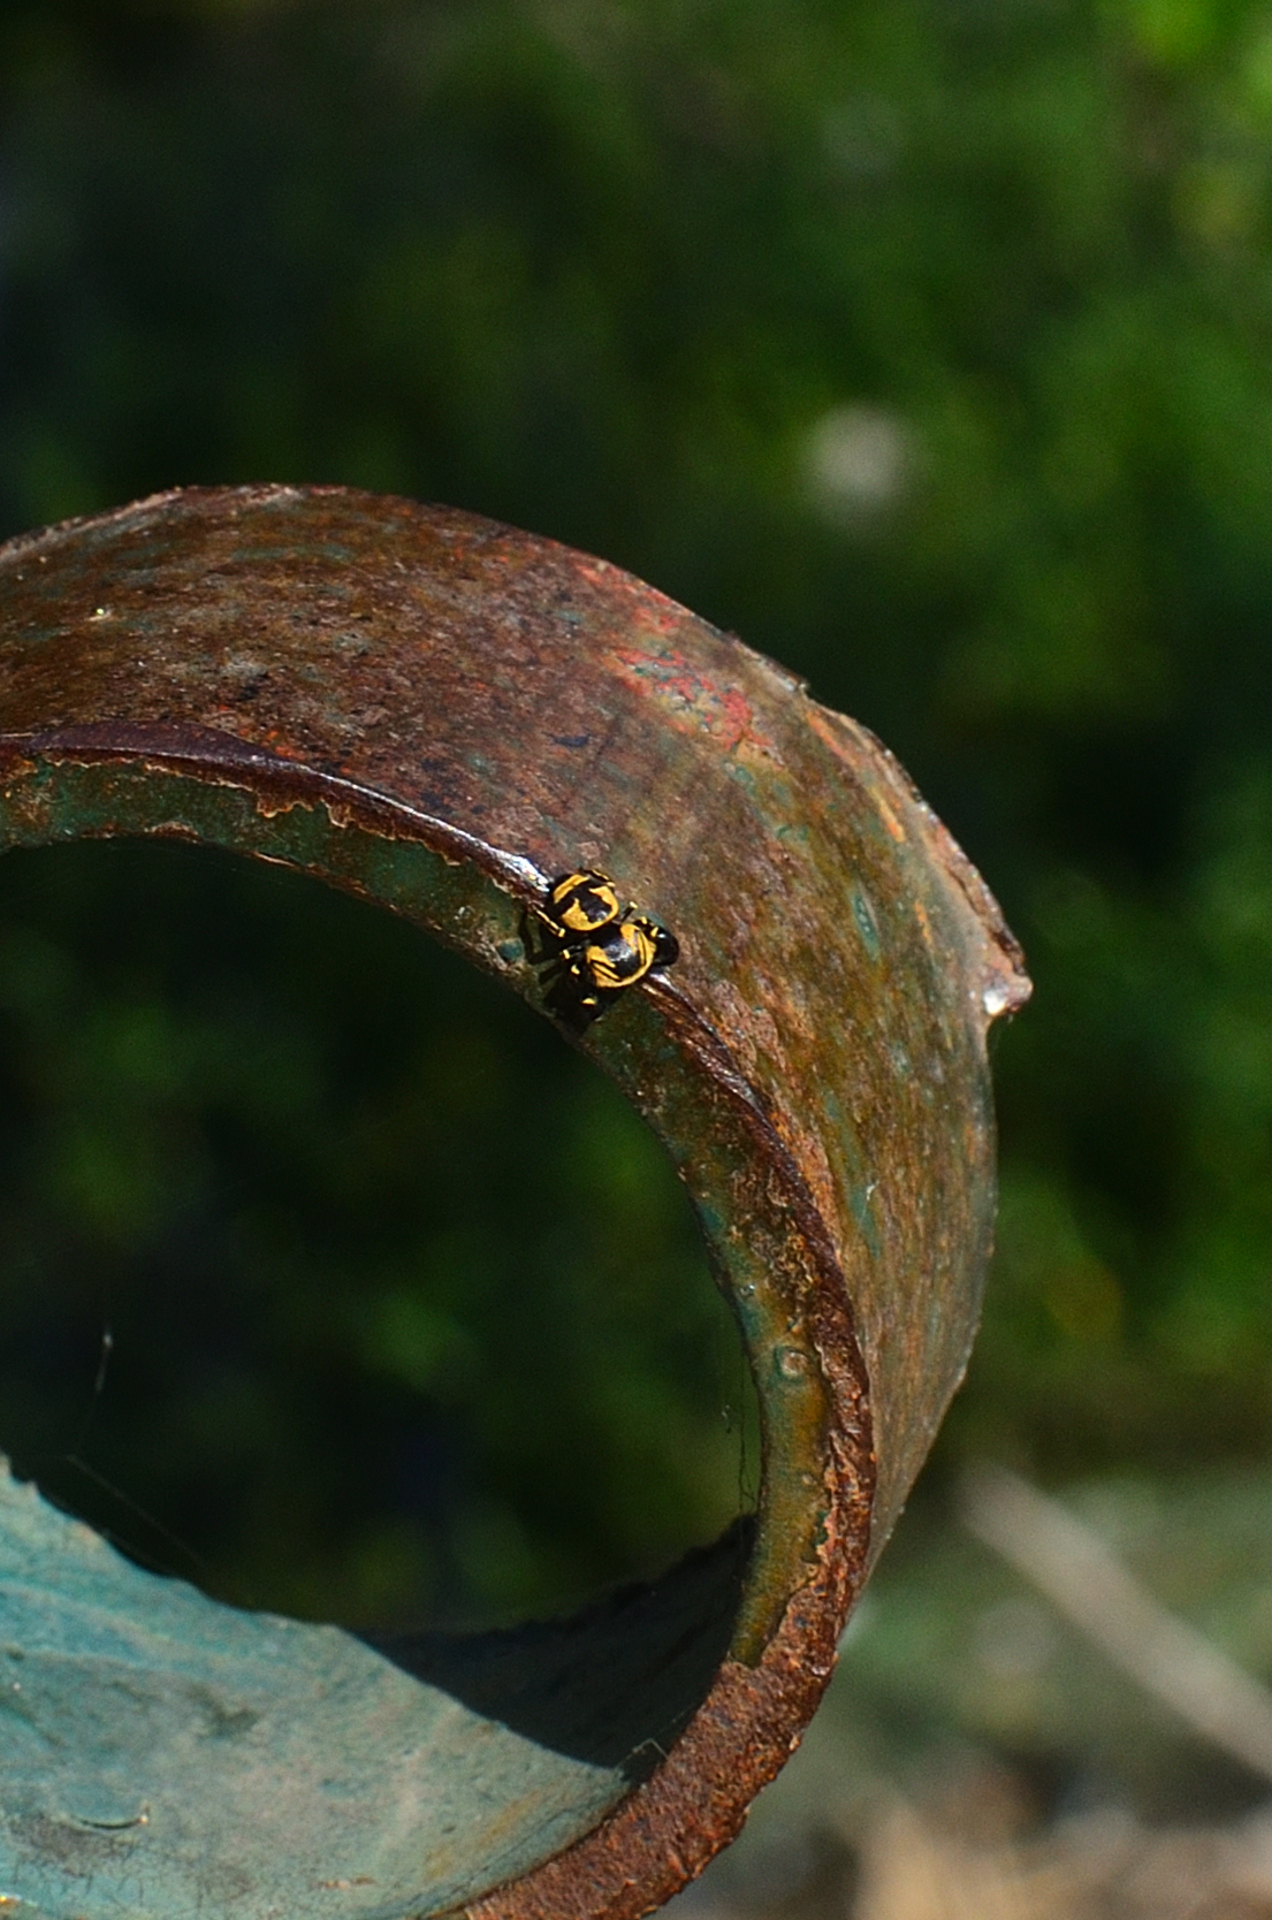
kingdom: Animalia
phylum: Arthropoda
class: Arachnida
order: Araneae
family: Salticidae
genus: Rhene
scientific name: Rhene flavicomans
